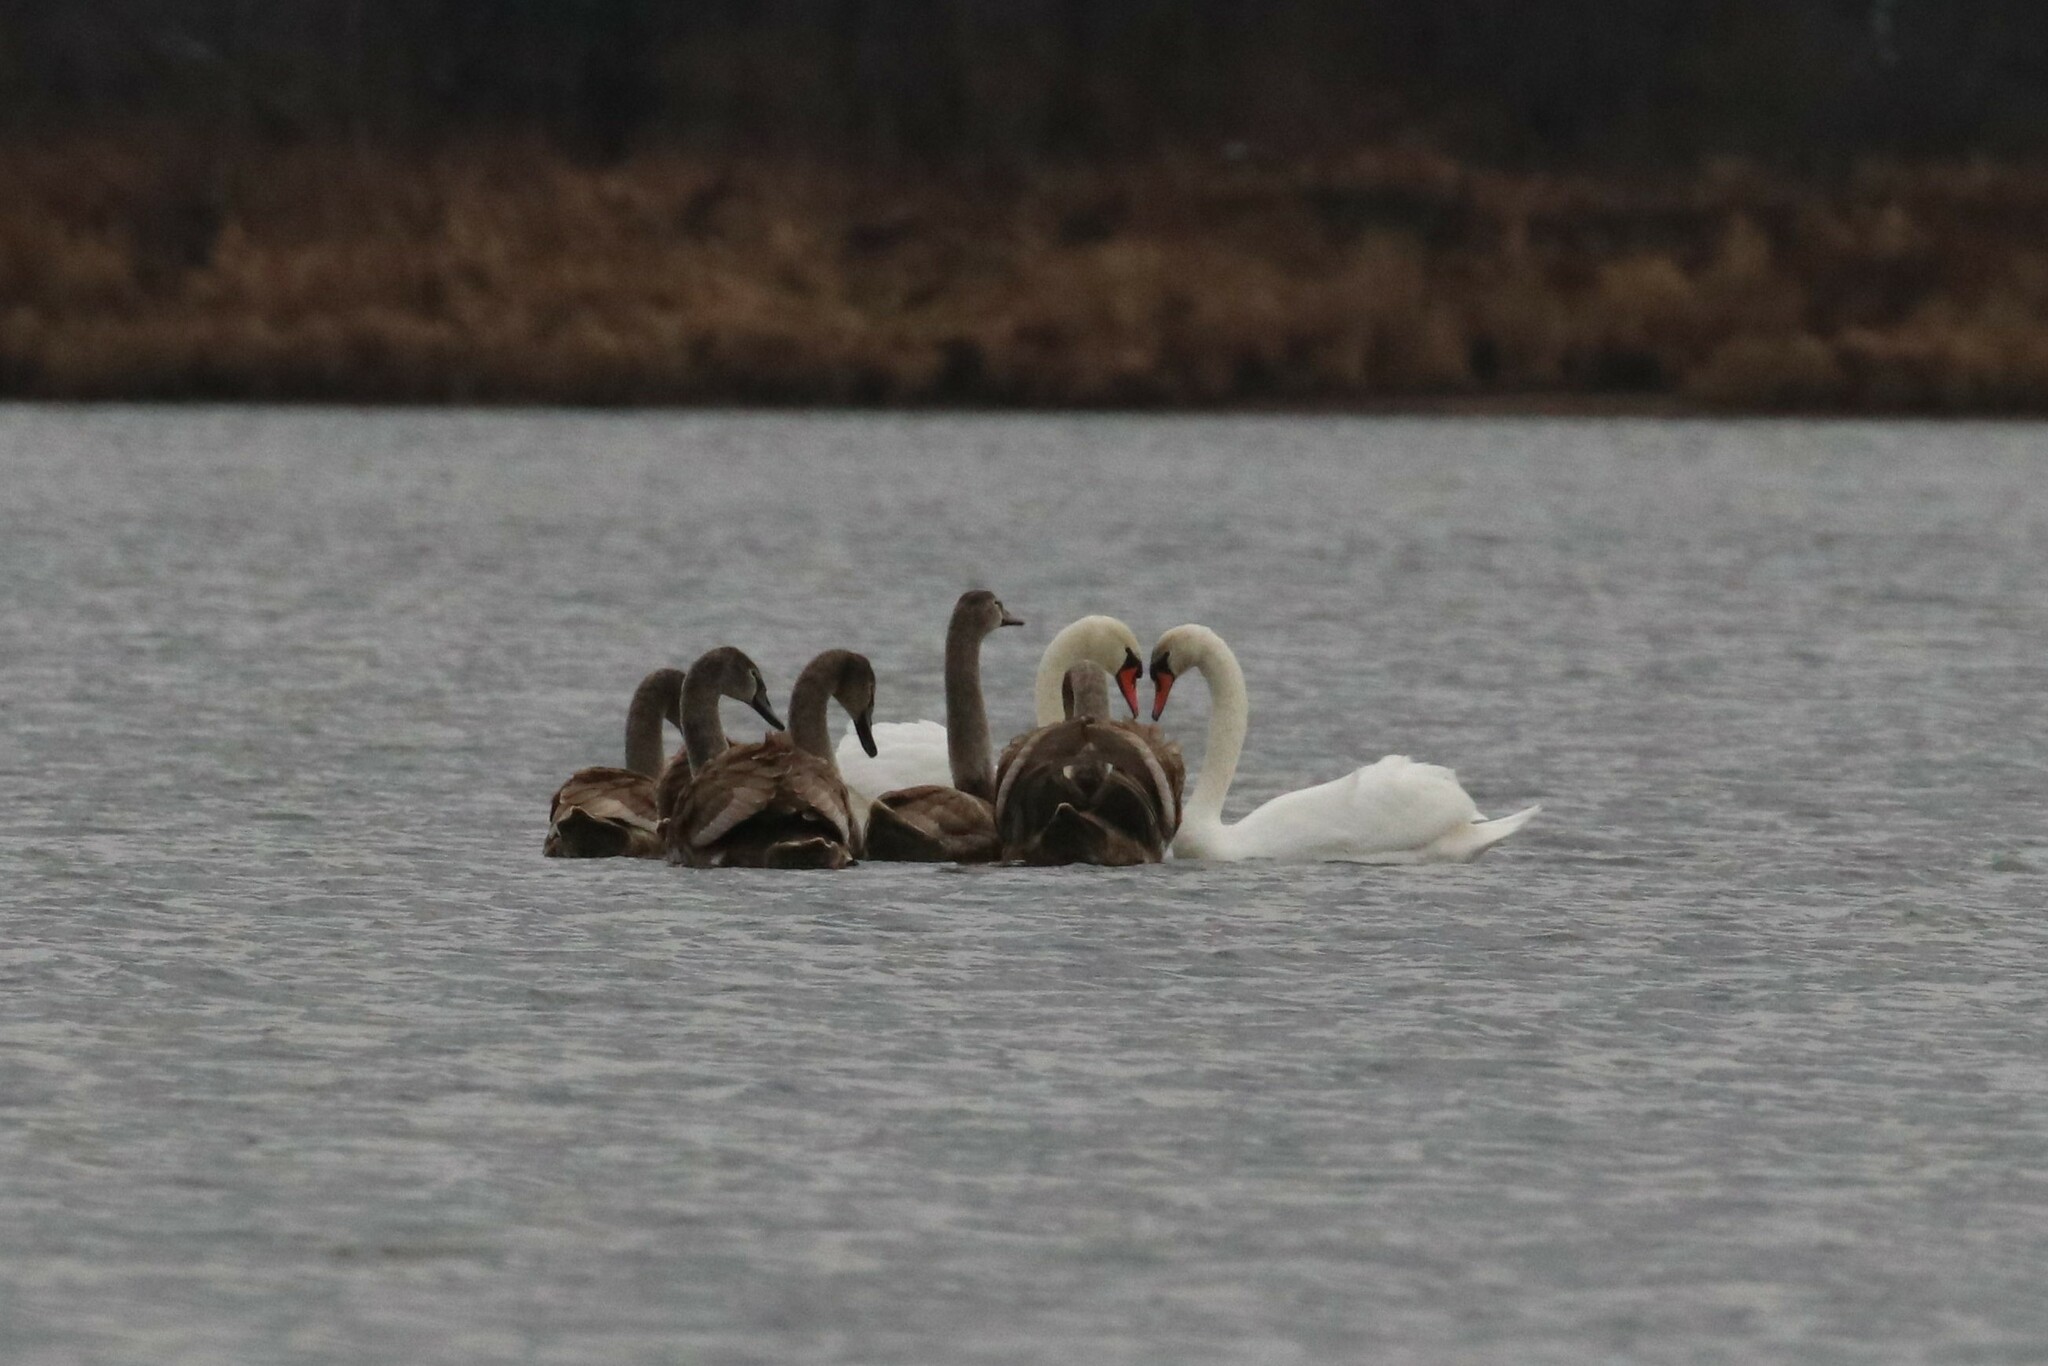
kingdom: Animalia
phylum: Chordata
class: Aves
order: Anseriformes
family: Anatidae
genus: Cygnus
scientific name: Cygnus olor
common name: Mute swan
